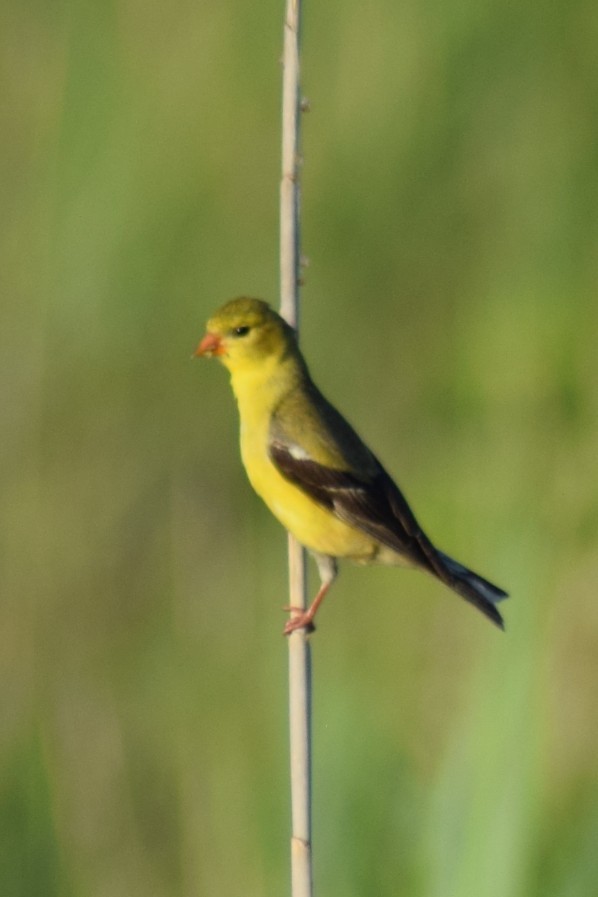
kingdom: Animalia
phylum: Chordata
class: Aves
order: Passeriformes
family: Fringillidae
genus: Spinus
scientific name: Spinus tristis
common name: American goldfinch
